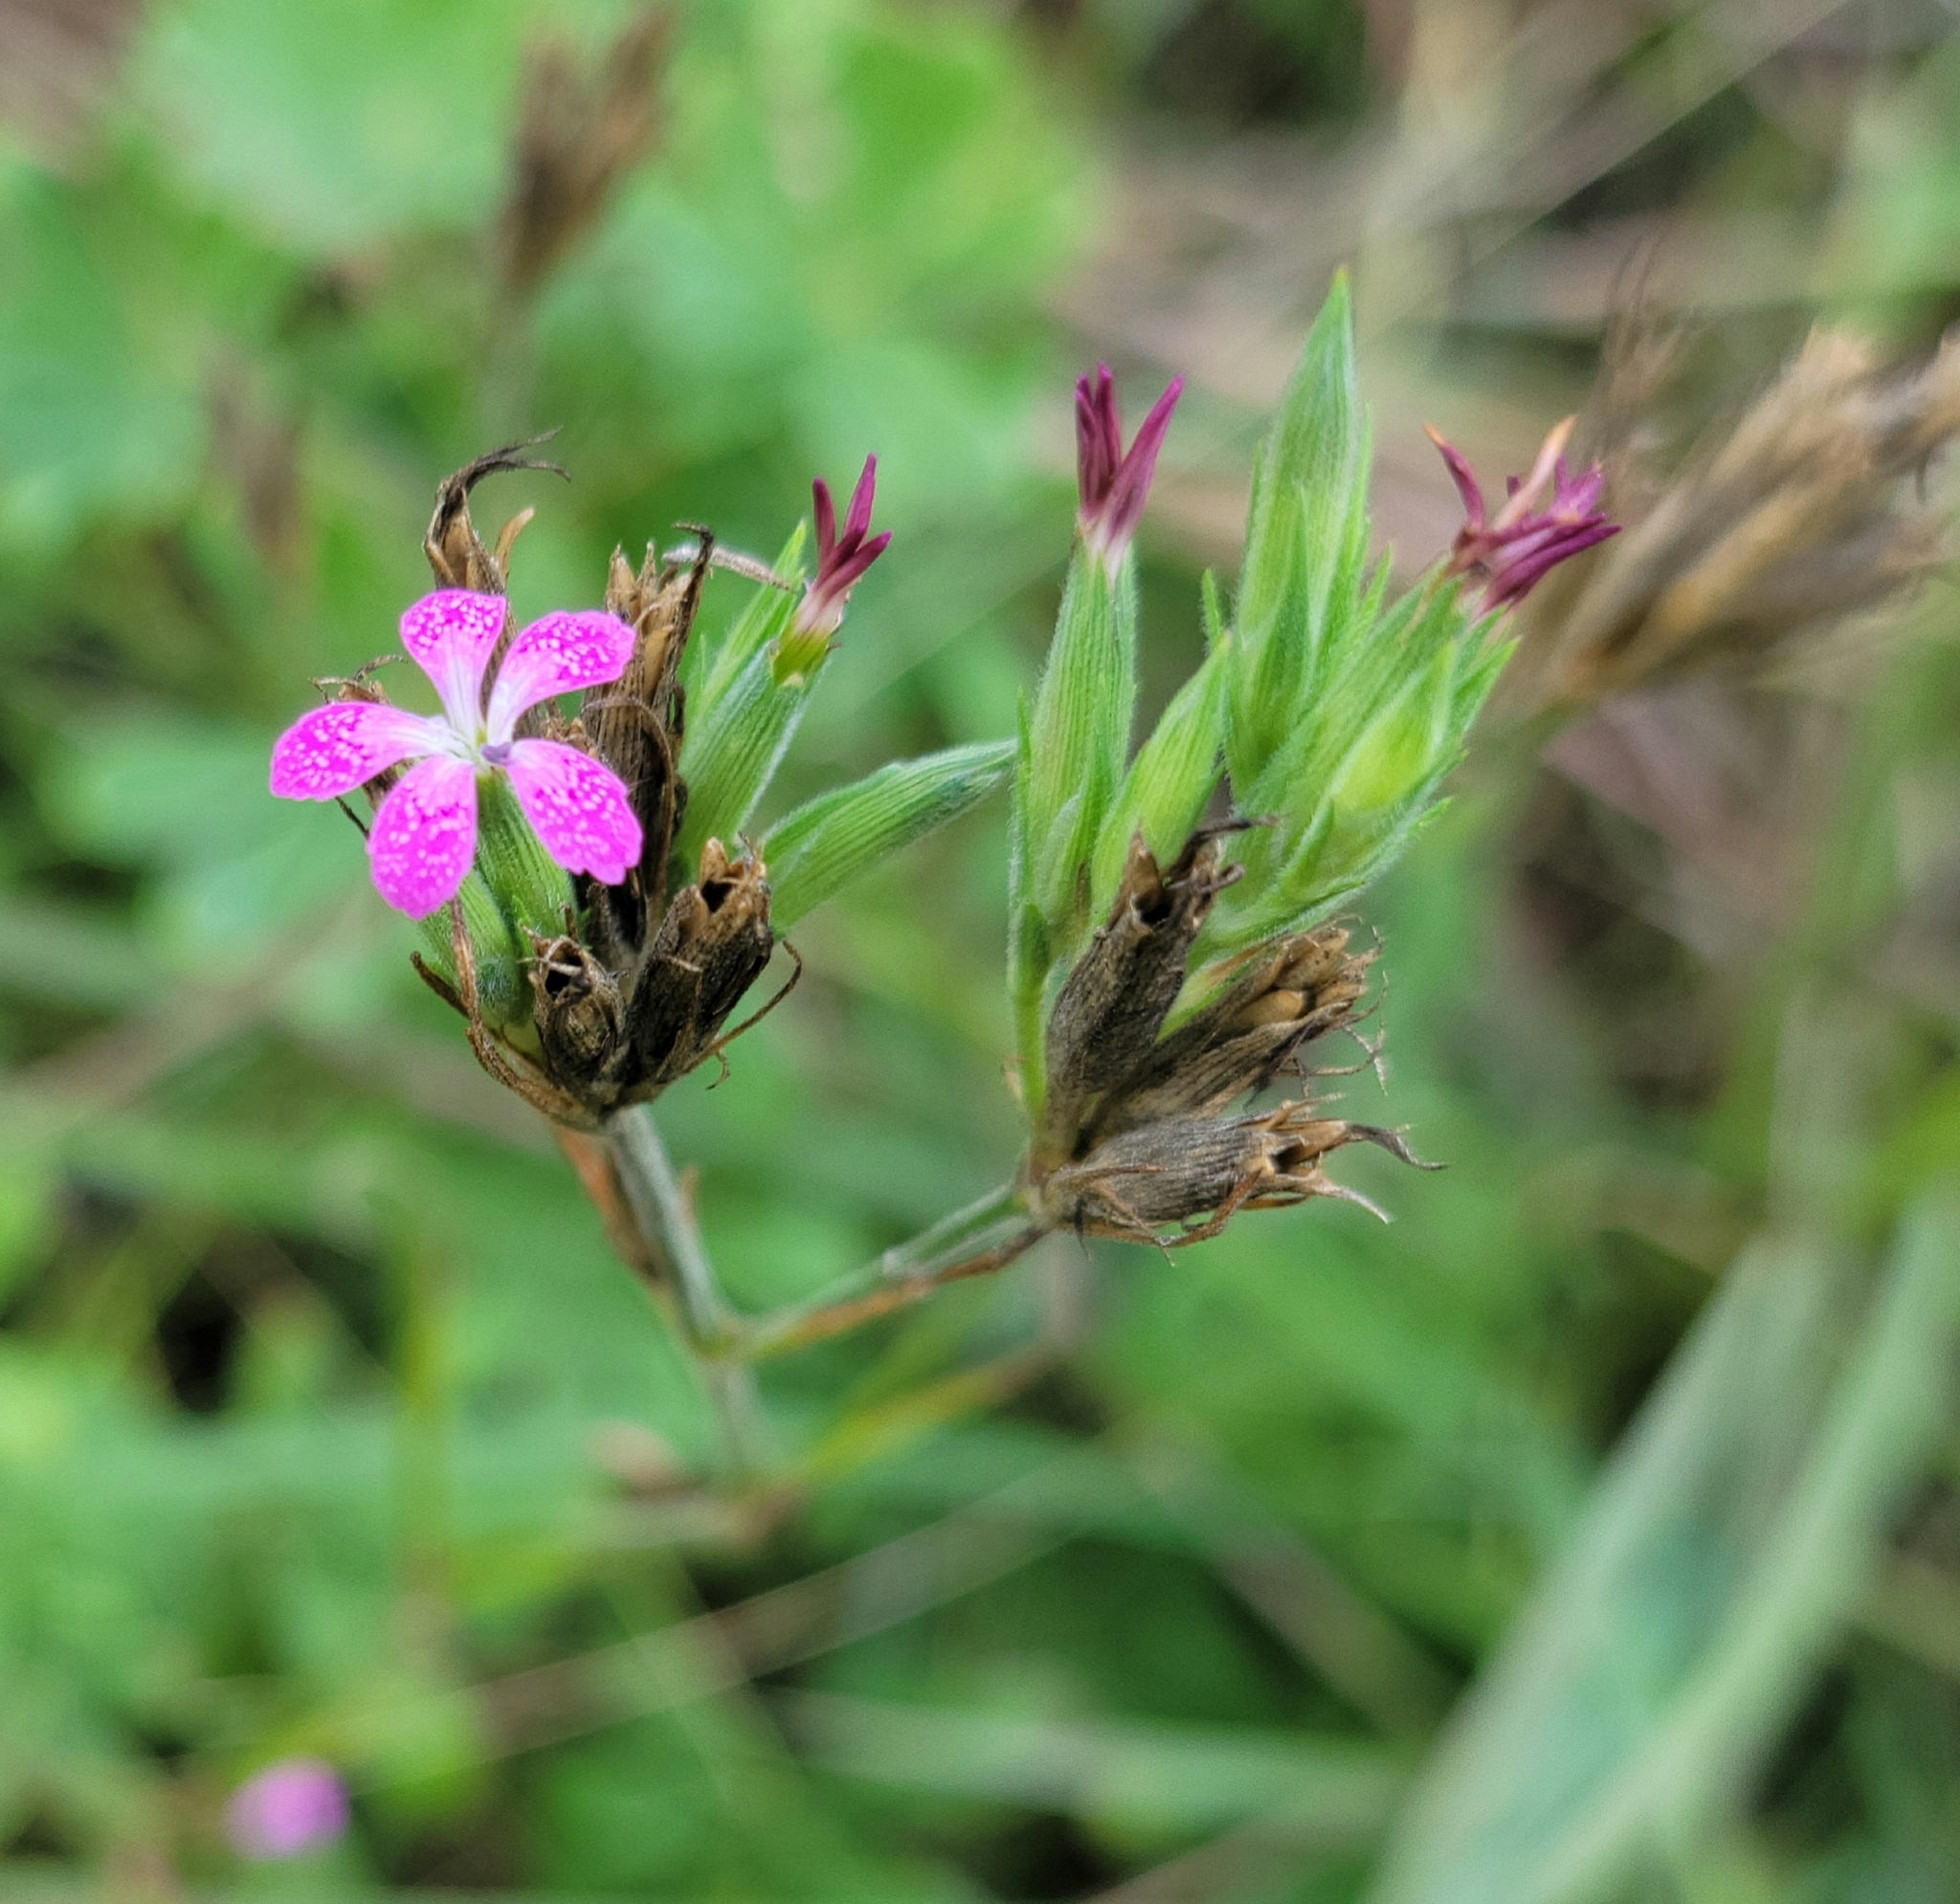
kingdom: Plantae
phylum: Tracheophyta
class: Magnoliopsida
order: Caryophyllales
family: Caryophyllaceae
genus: Dianthus
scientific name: Dianthus armeria
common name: Deptford pink
